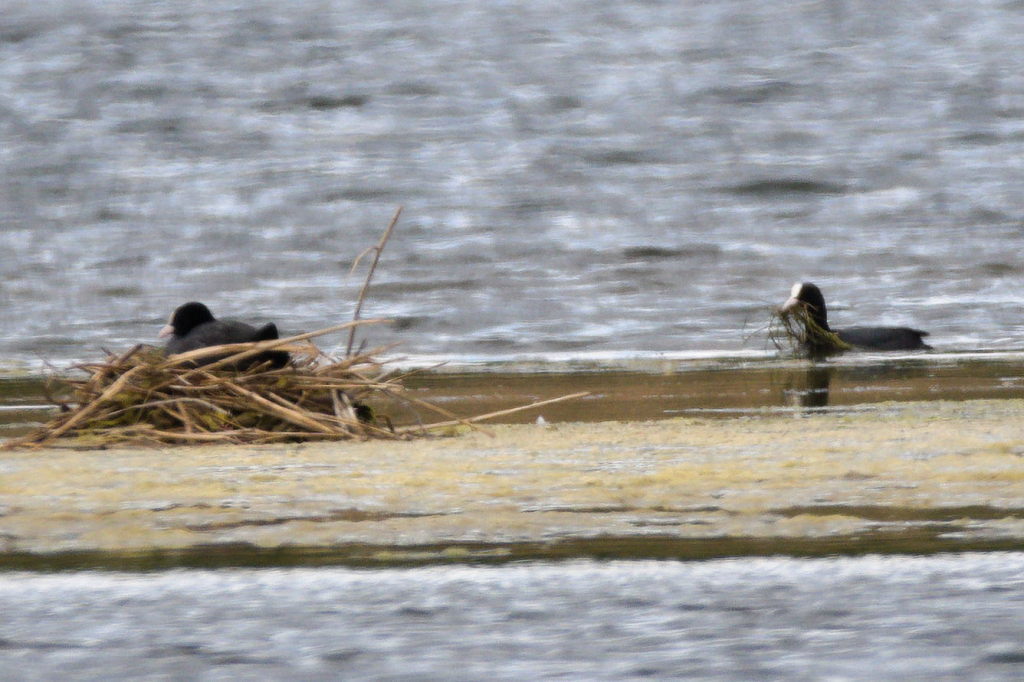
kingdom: Animalia
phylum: Chordata
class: Aves
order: Gruiformes
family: Rallidae
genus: Fulica
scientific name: Fulica atra
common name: Eurasian coot
